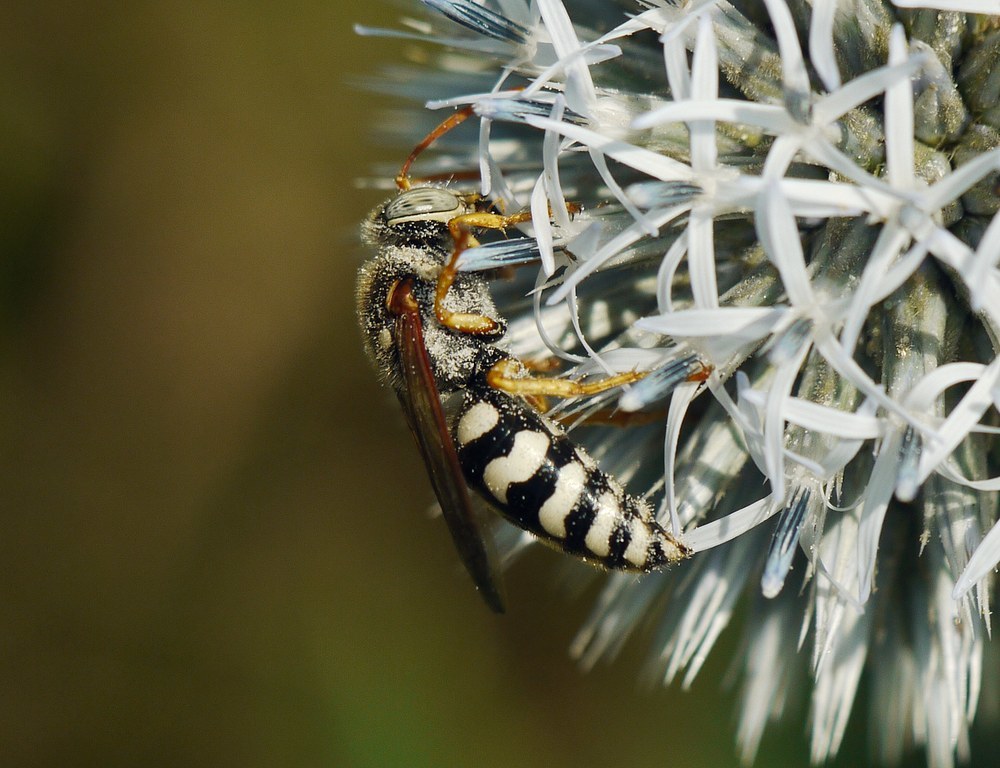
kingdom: Animalia
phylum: Arthropoda
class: Insecta
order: Hymenoptera
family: Crabronidae
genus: Stizus
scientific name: Stizus bipunctatus
